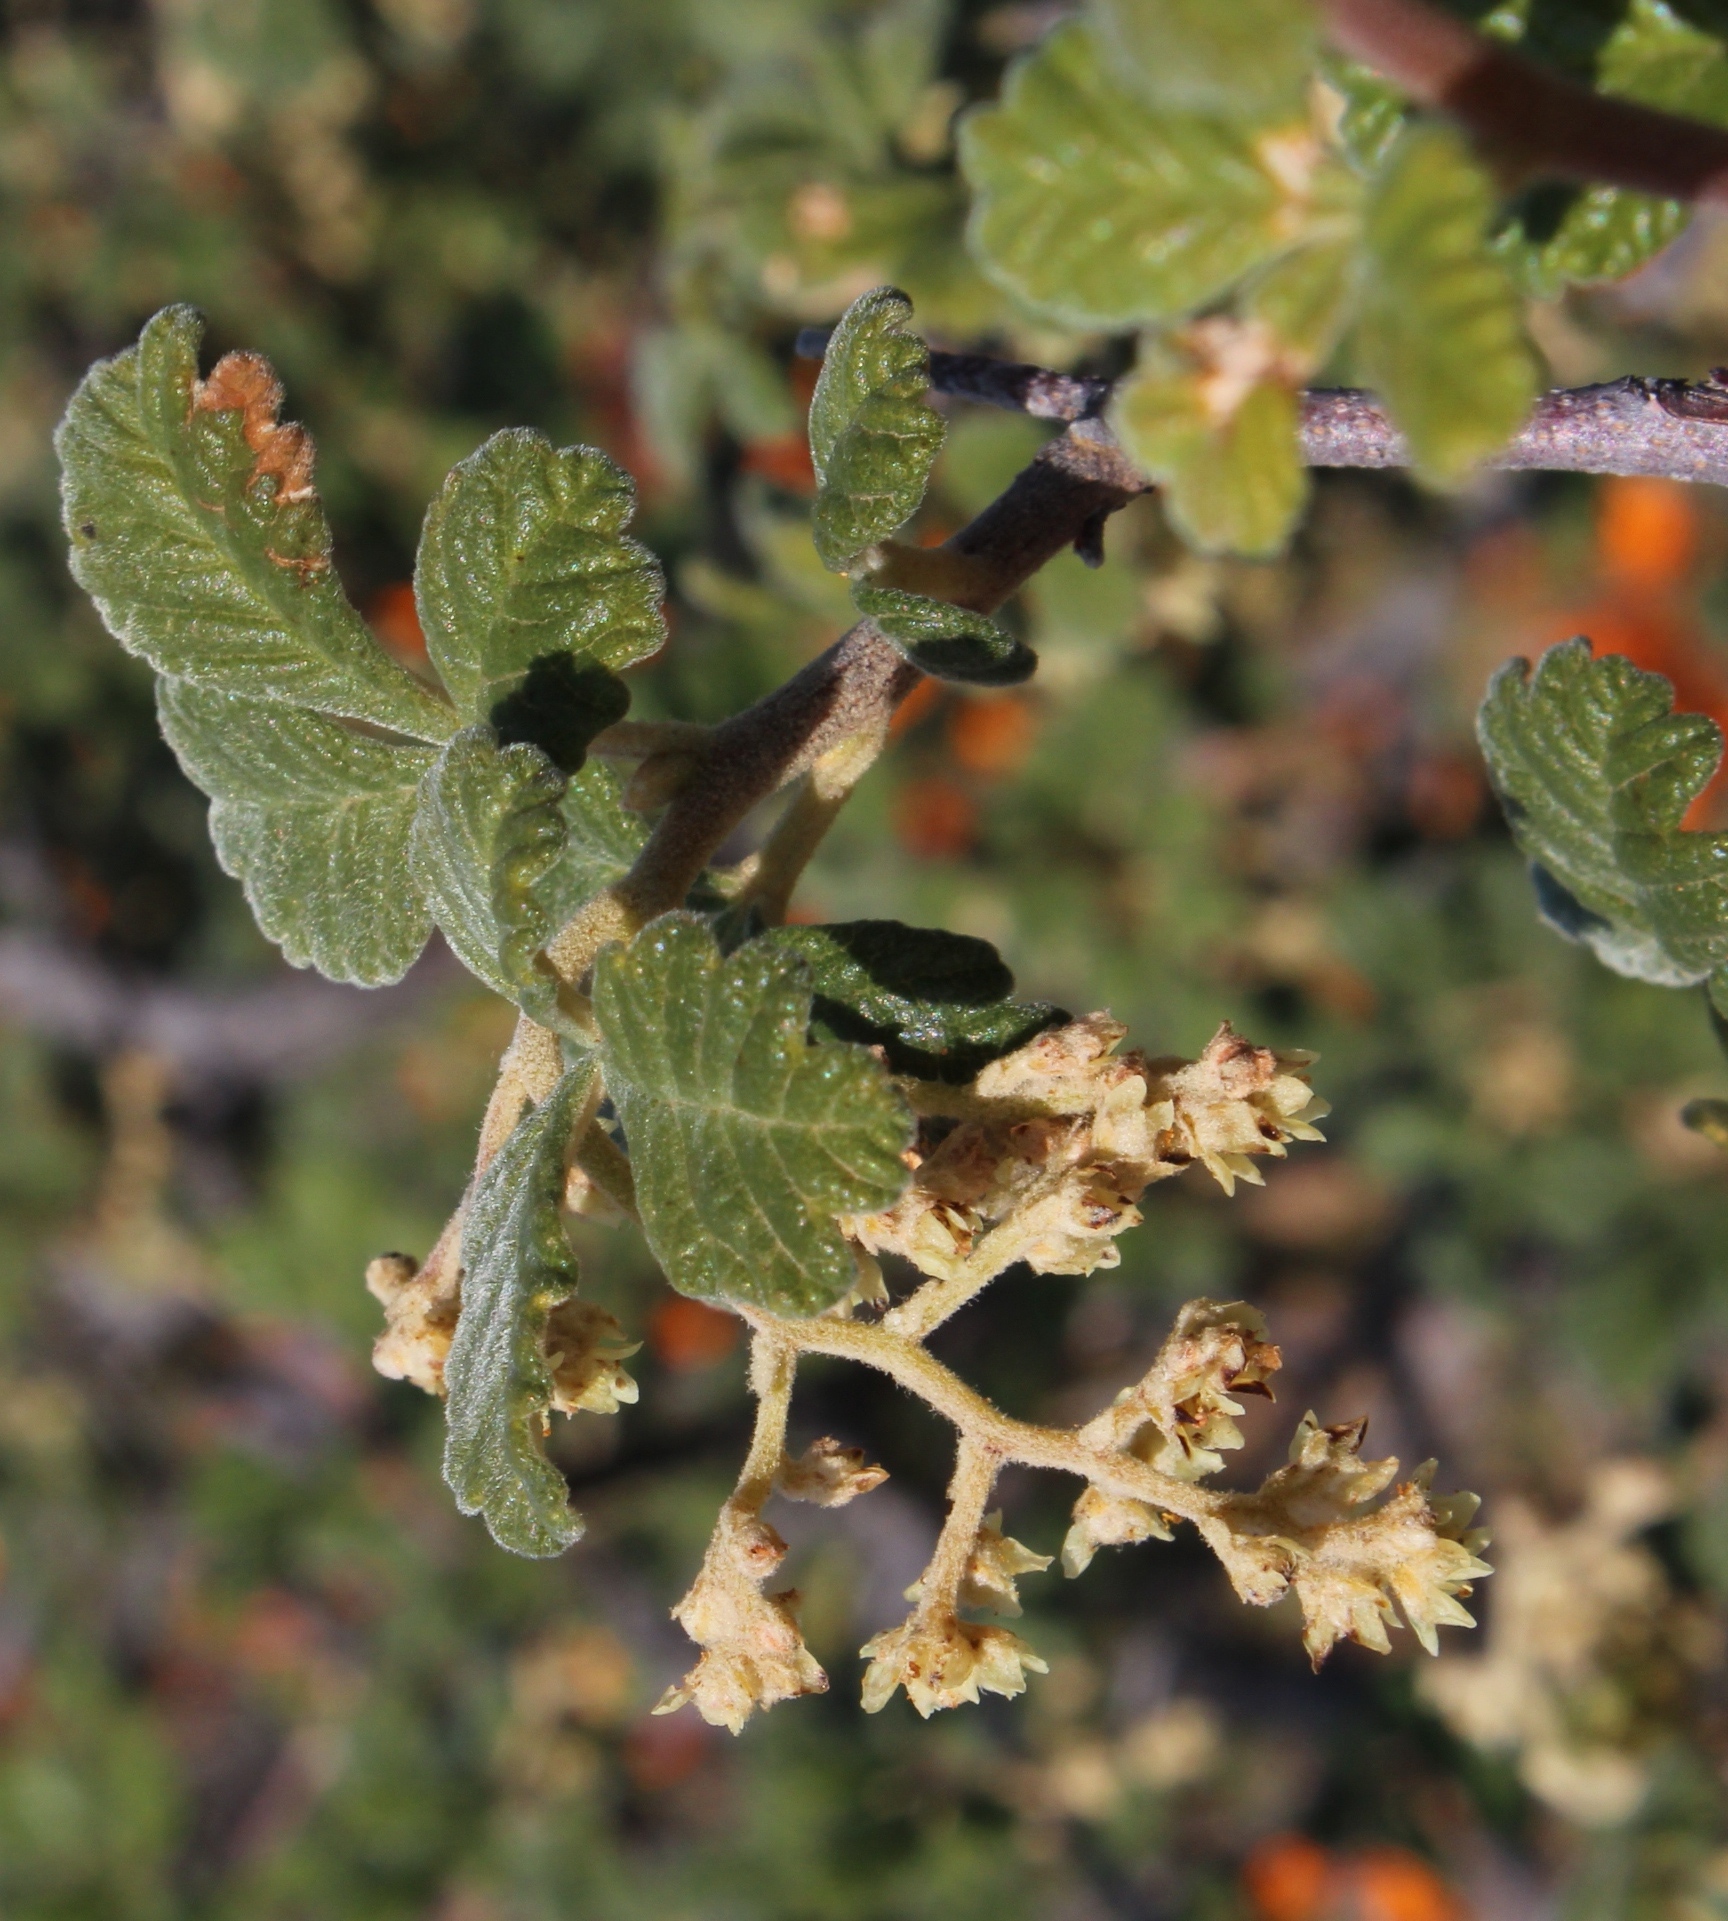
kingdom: Plantae
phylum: Tracheophyta
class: Magnoliopsida
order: Sapindales
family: Anacardiaceae
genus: Searsia
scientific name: Searsia incisa
